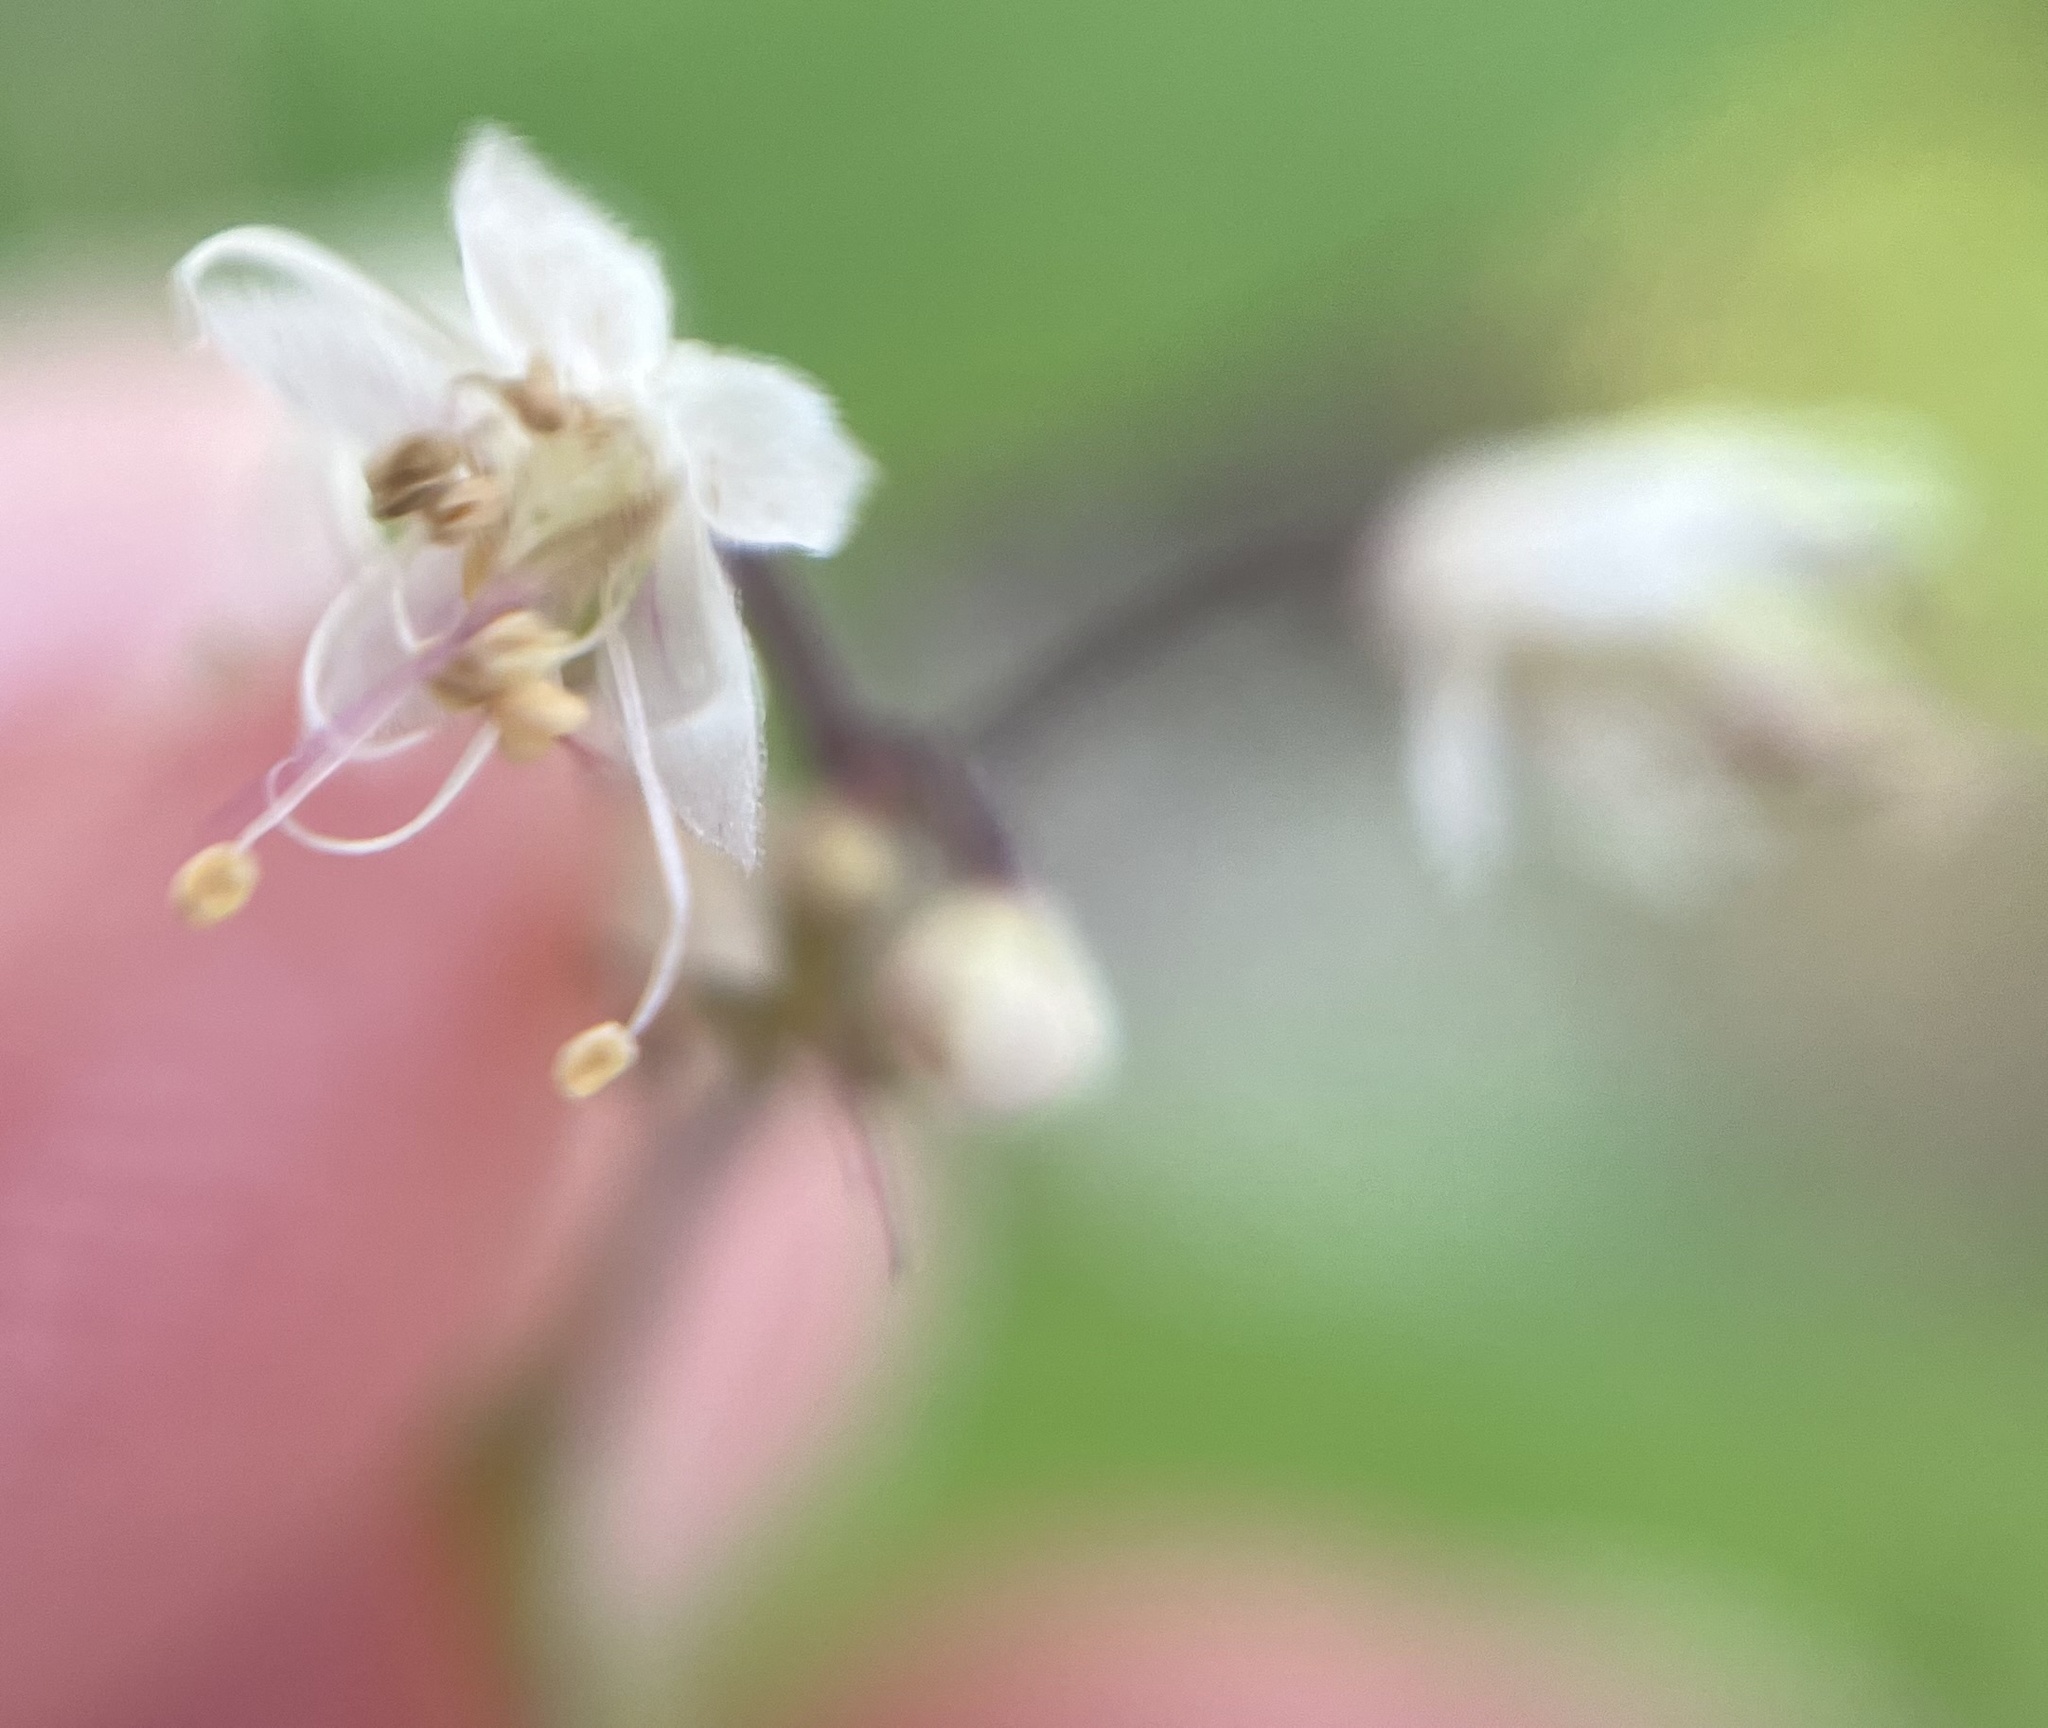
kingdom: Plantae
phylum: Tracheophyta
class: Magnoliopsida
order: Saxifragales
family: Saxifragaceae
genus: Tiarella
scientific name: Tiarella trifoliata
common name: Sugar-scoop
